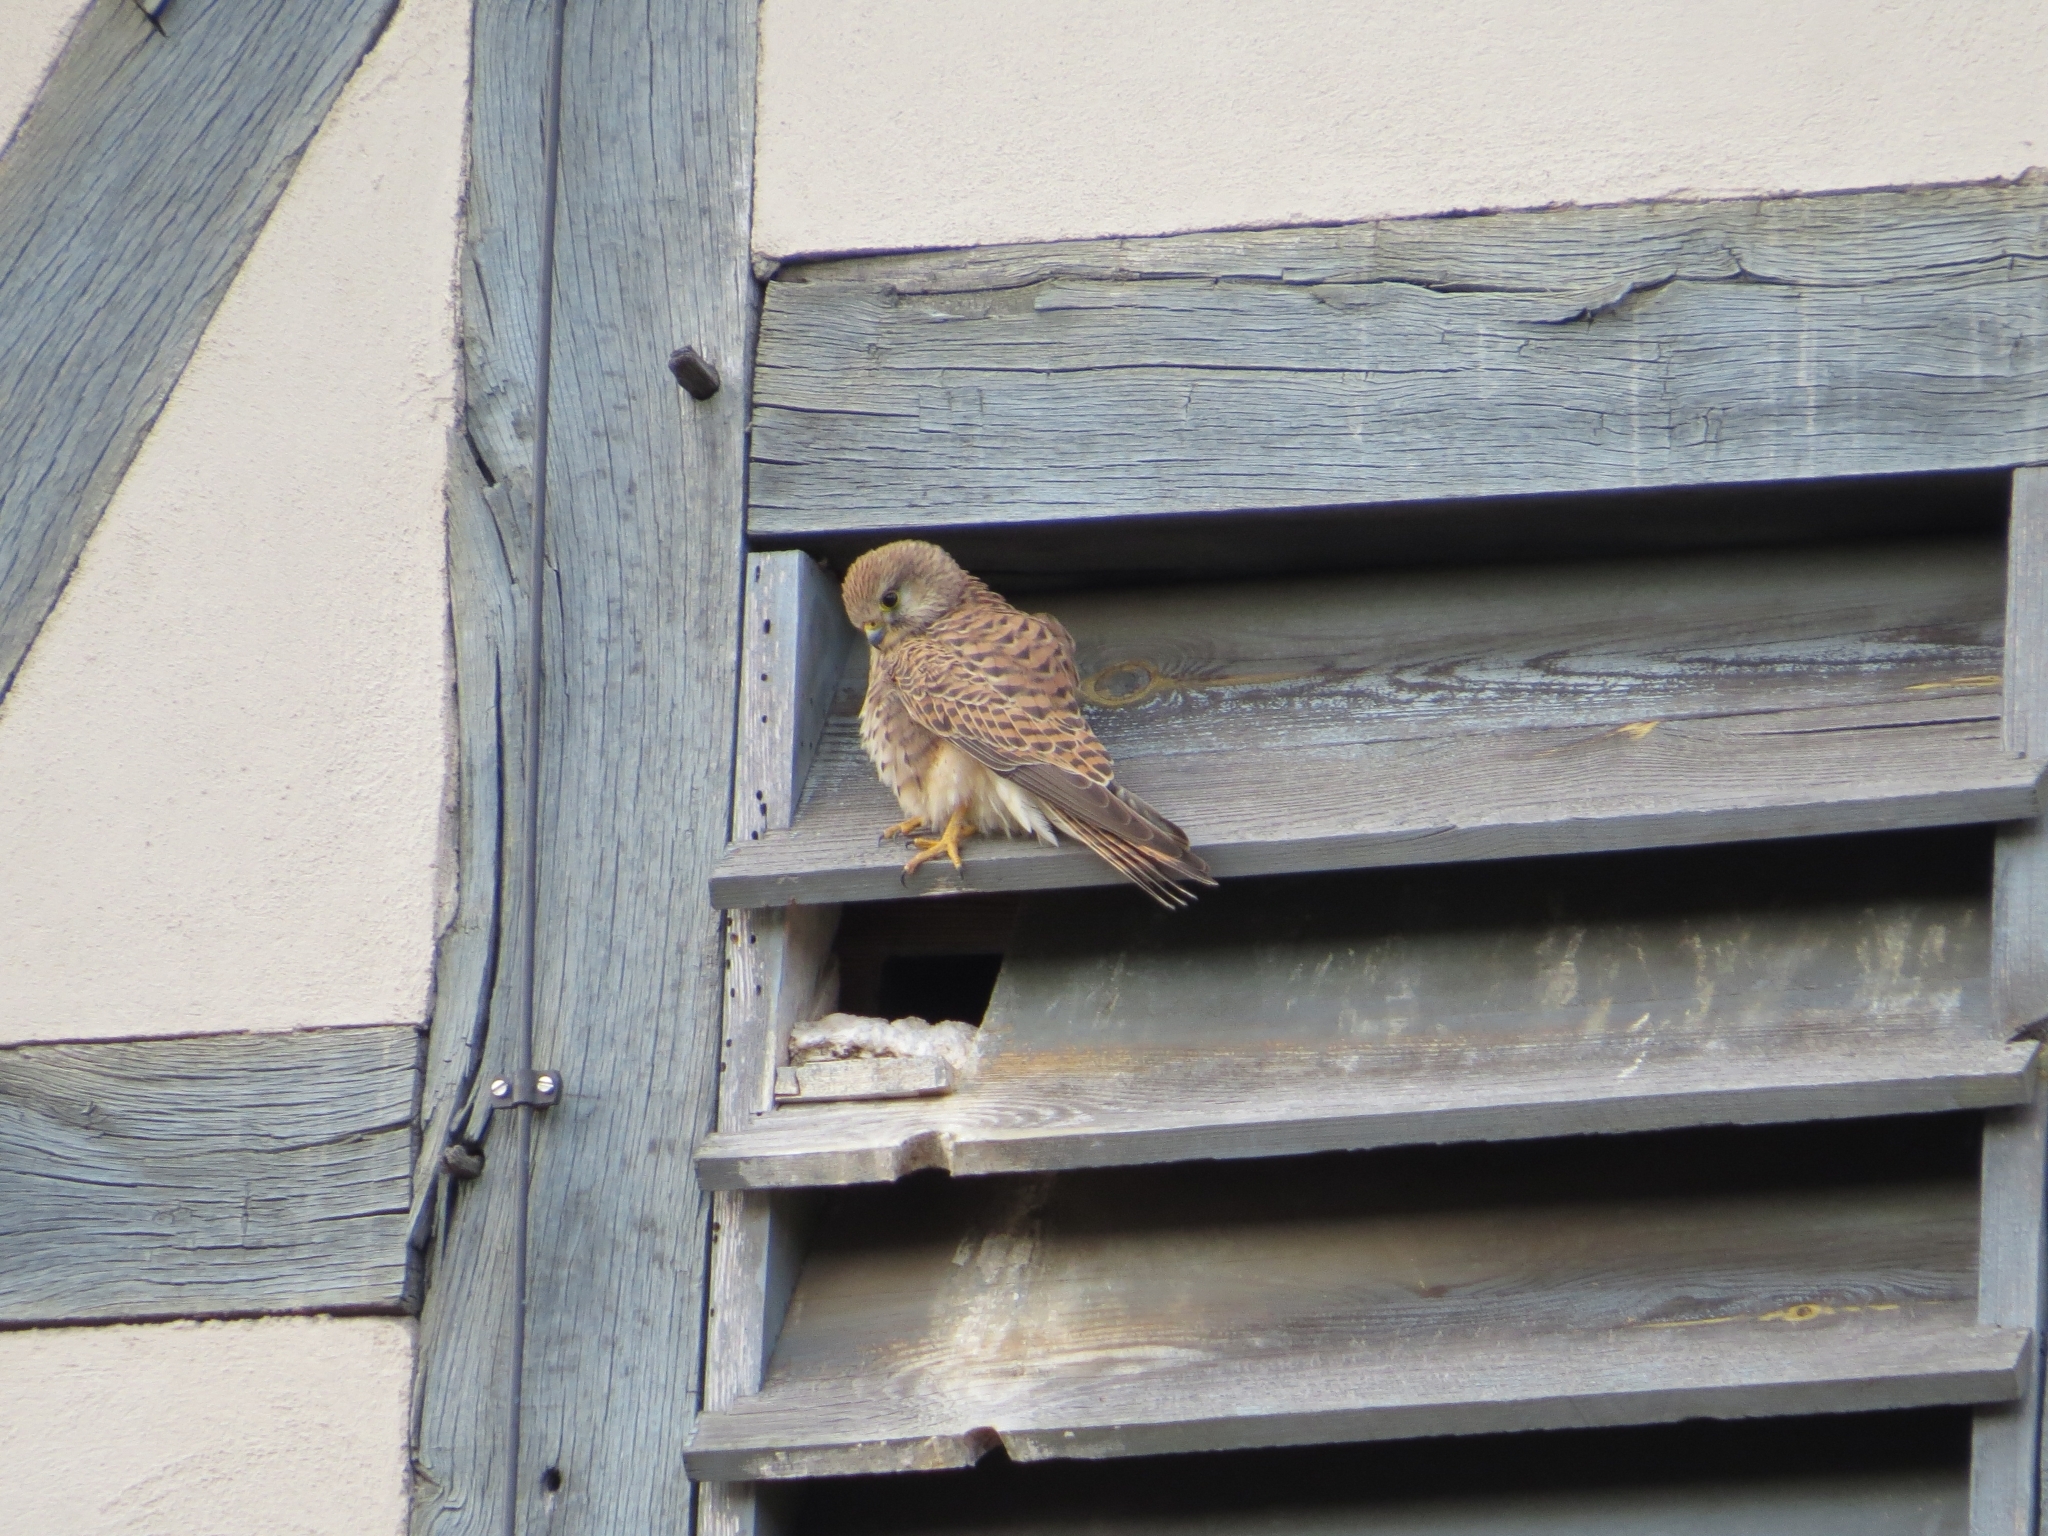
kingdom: Animalia
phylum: Chordata
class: Aves
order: Falconiformes
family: Falconidae
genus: Falco
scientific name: Falco tinnunculus
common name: Common kestrel
